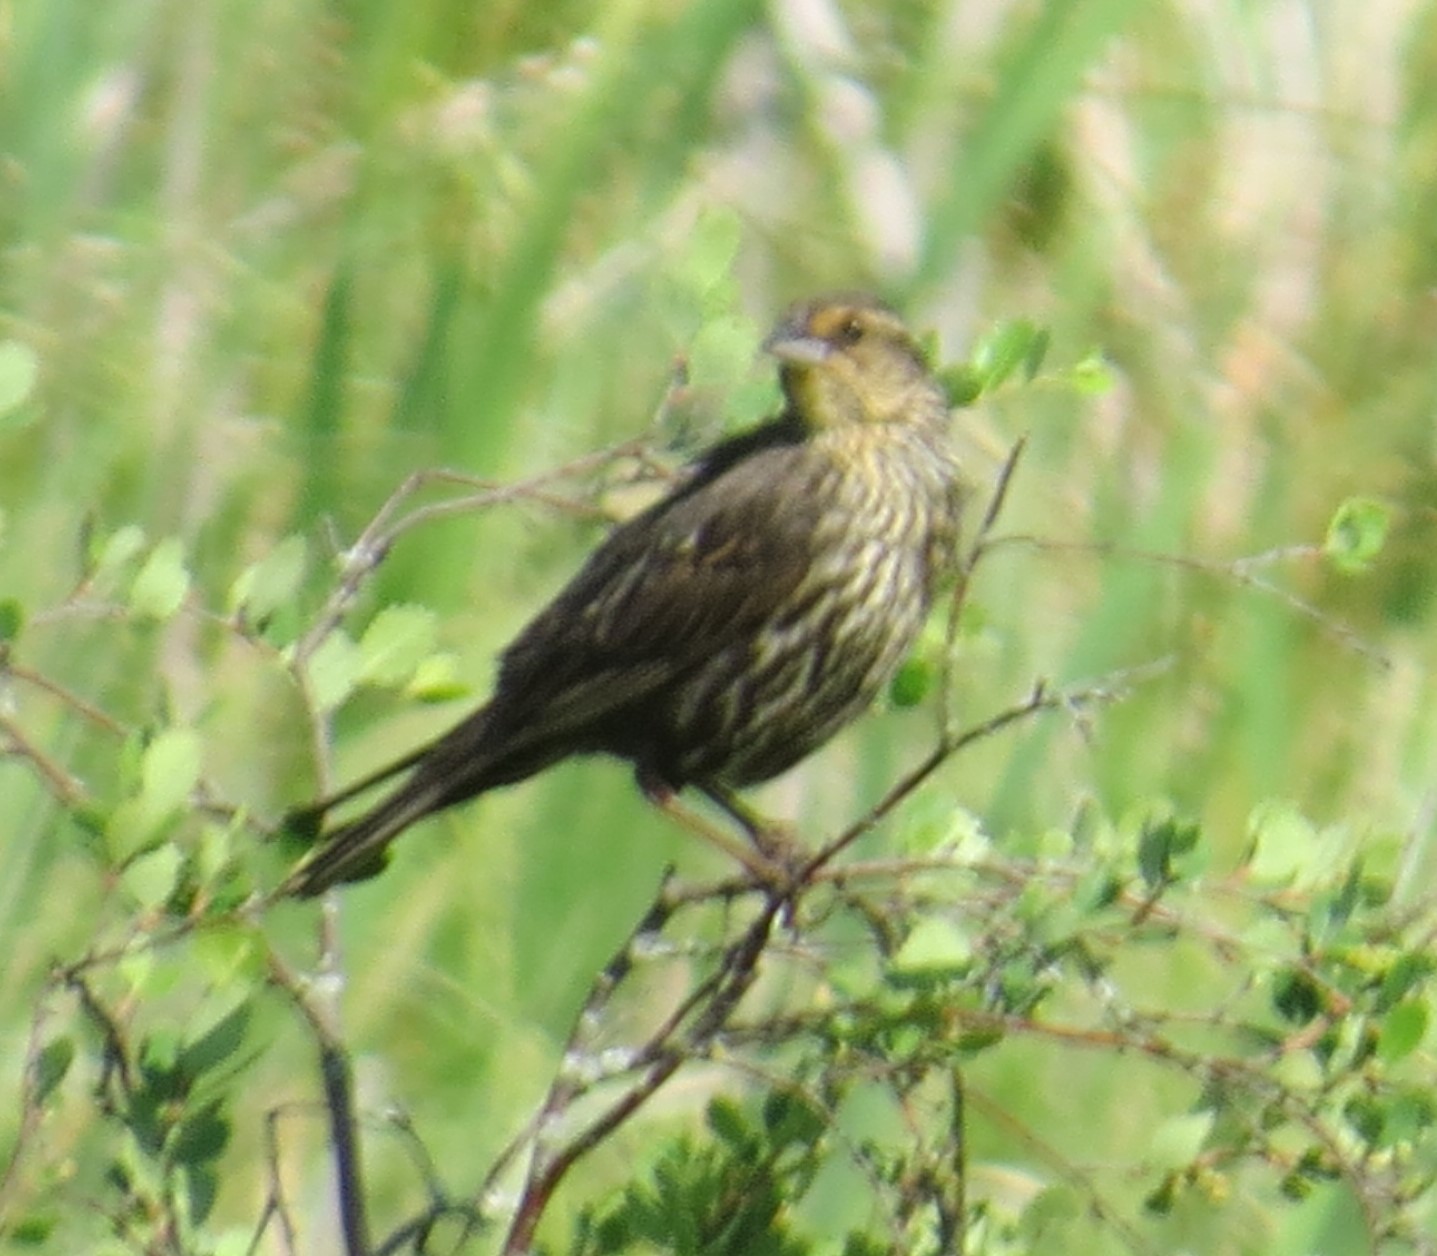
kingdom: Animalia
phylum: Chordata
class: Aves
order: Passeriformes
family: Icteridae
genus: Agelaius
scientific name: Agelaius phoeniceus
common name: Red-winged blackbird
